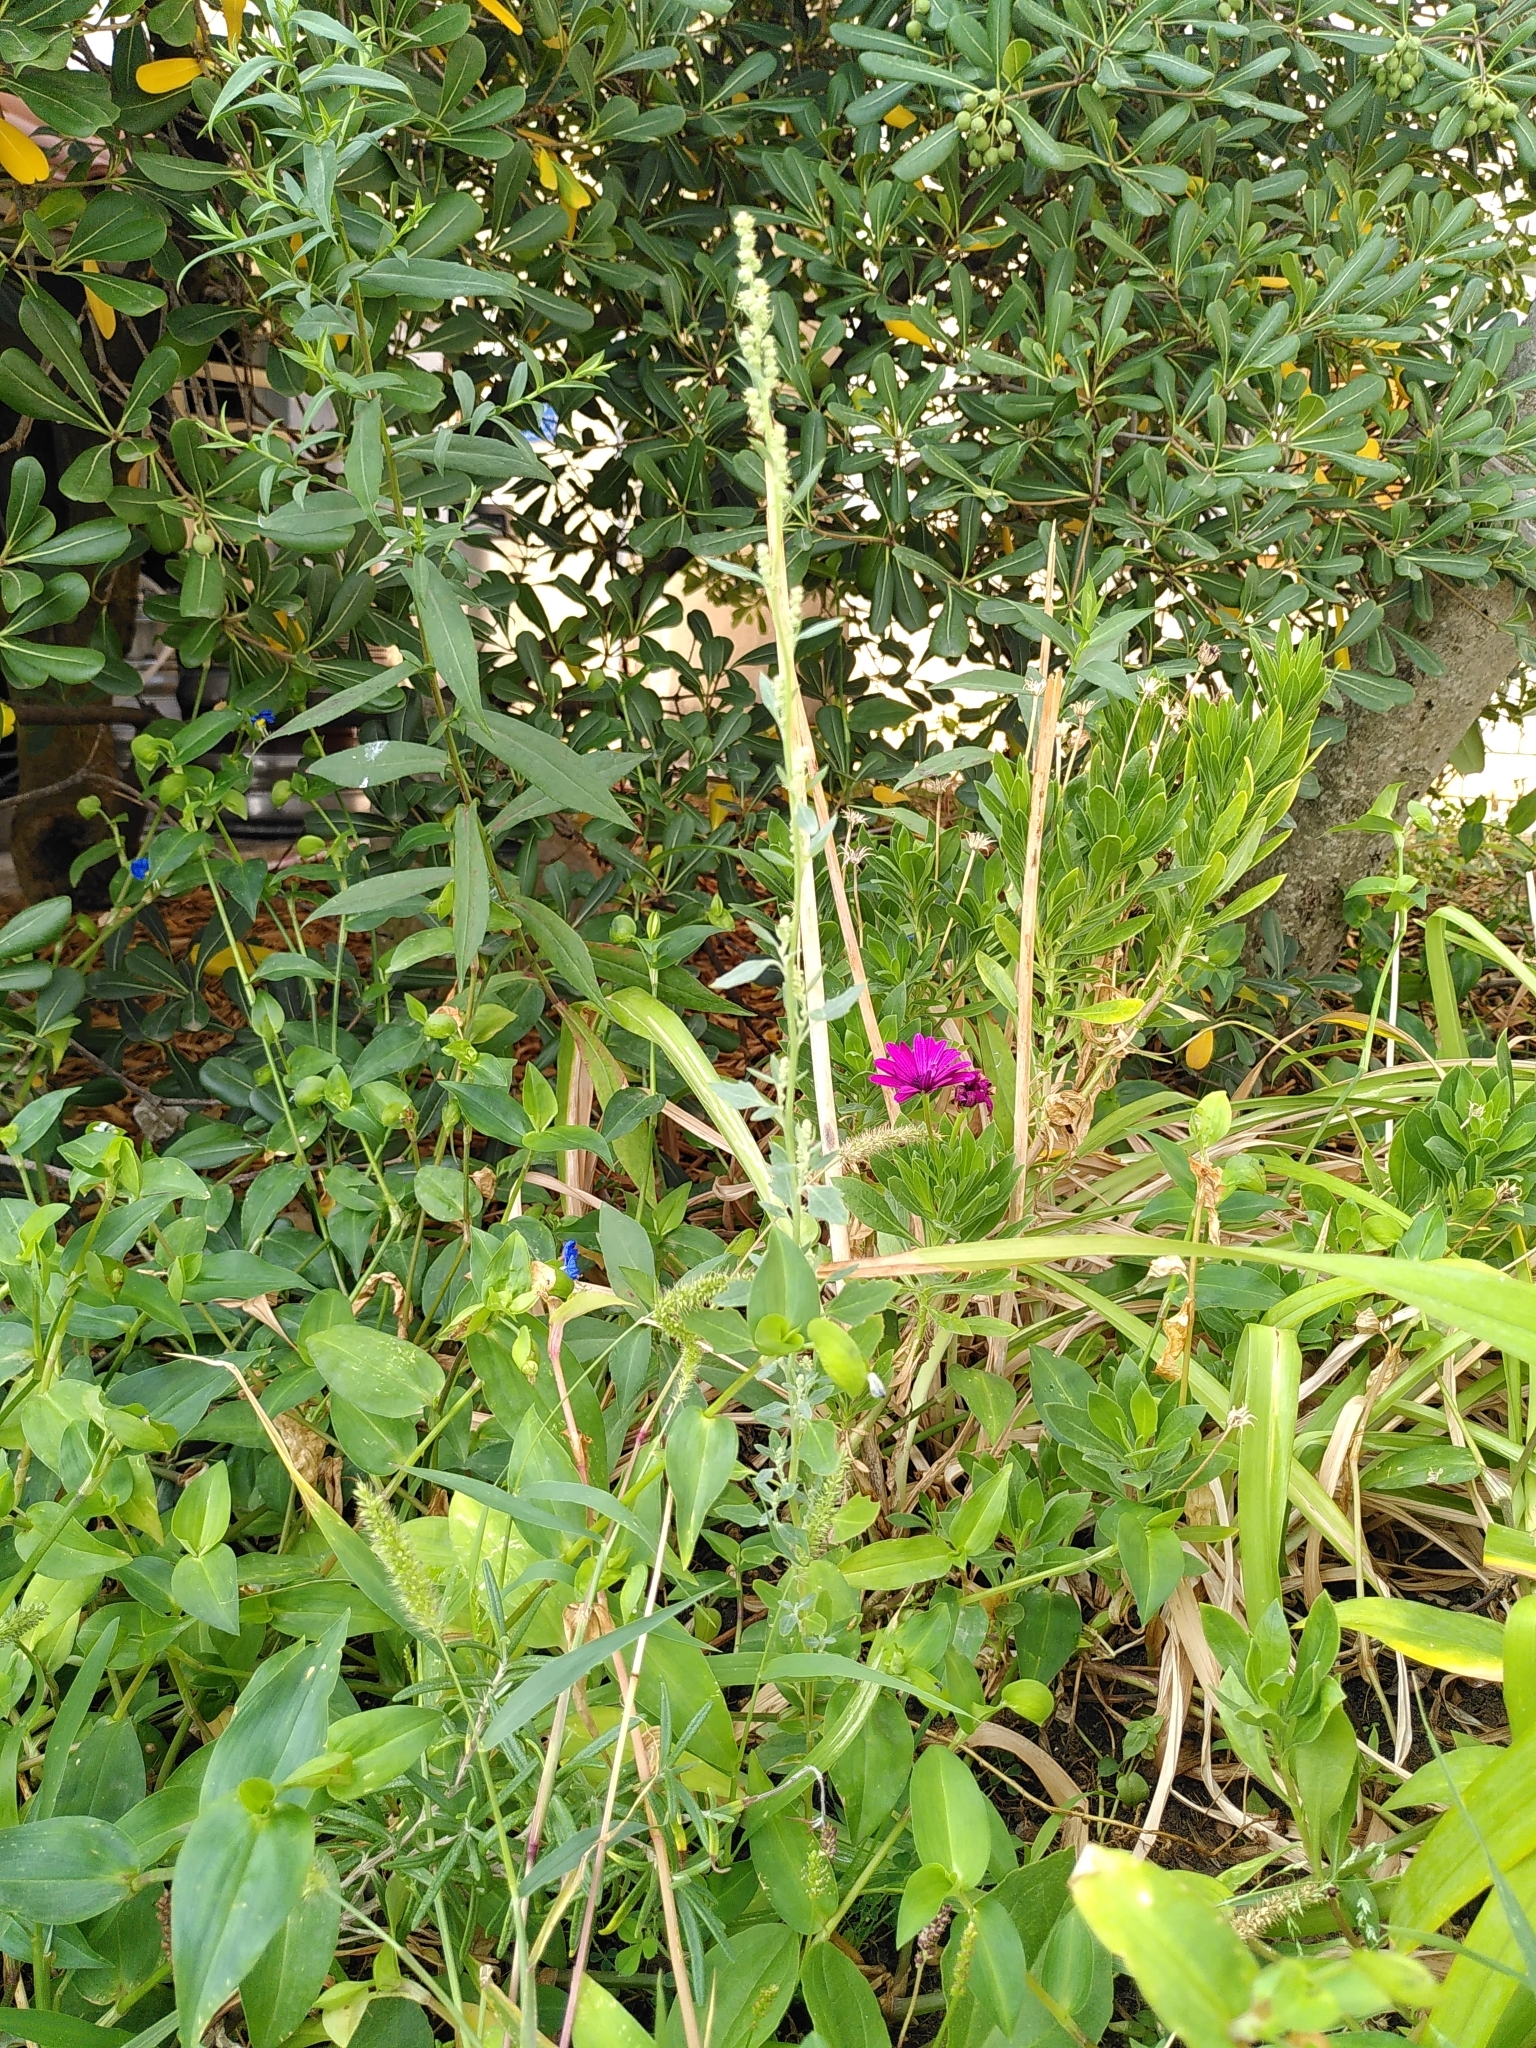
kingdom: Plantae
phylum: Tracheophyta
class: Magnoliopsida
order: Caryophyllales
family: Amaranthaceae
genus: Chenopodium
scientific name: Chenopodium album
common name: Fat-hen
